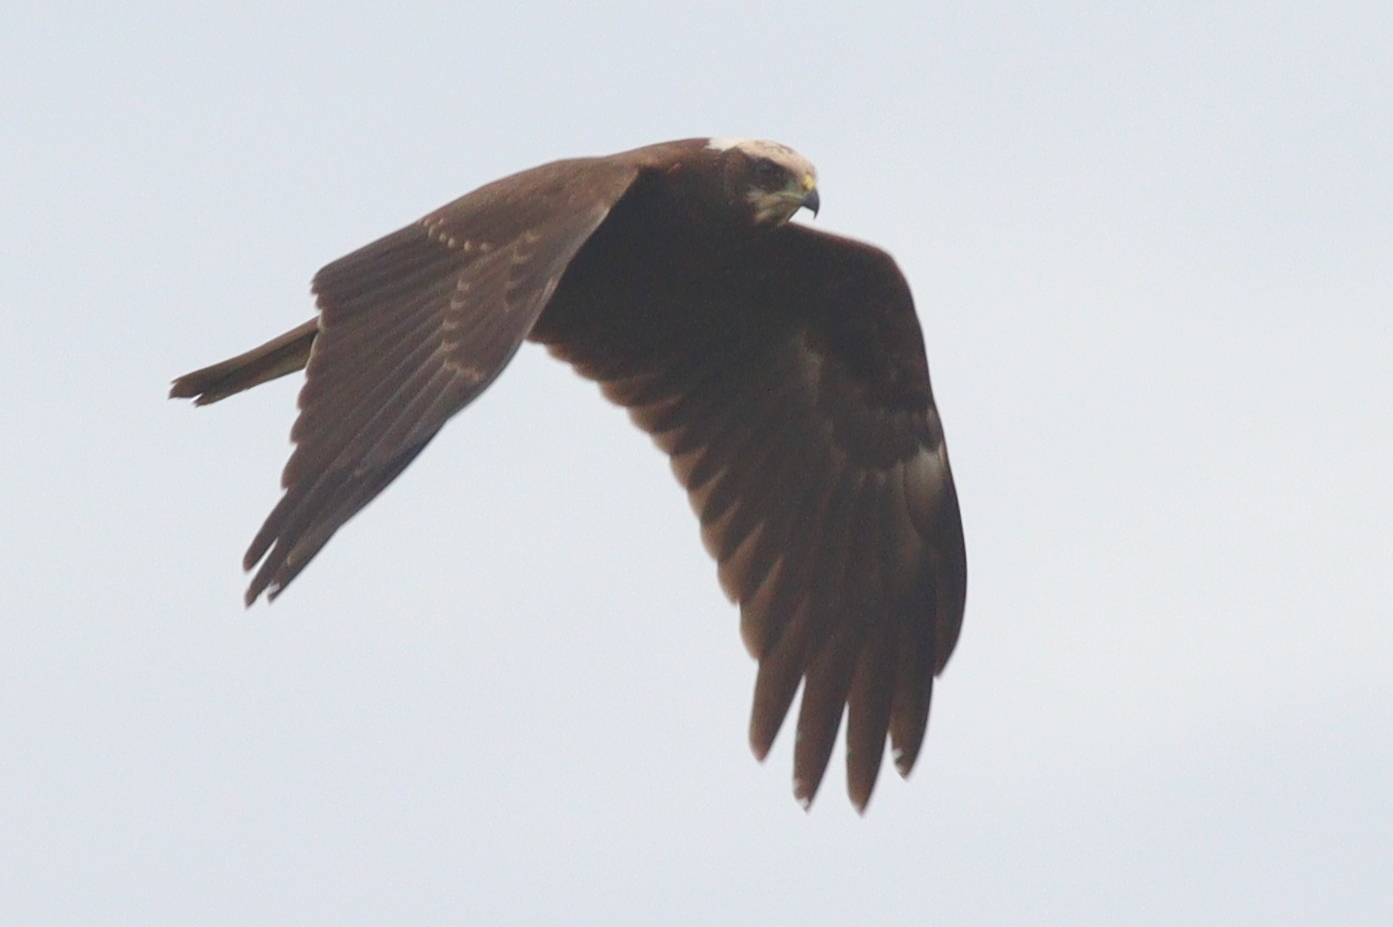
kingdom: Animalia
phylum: Chordata
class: Aves
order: Accipitriformes
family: Accipitridae
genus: Circus
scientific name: Circus aeruginosus
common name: Western marsh harrier
